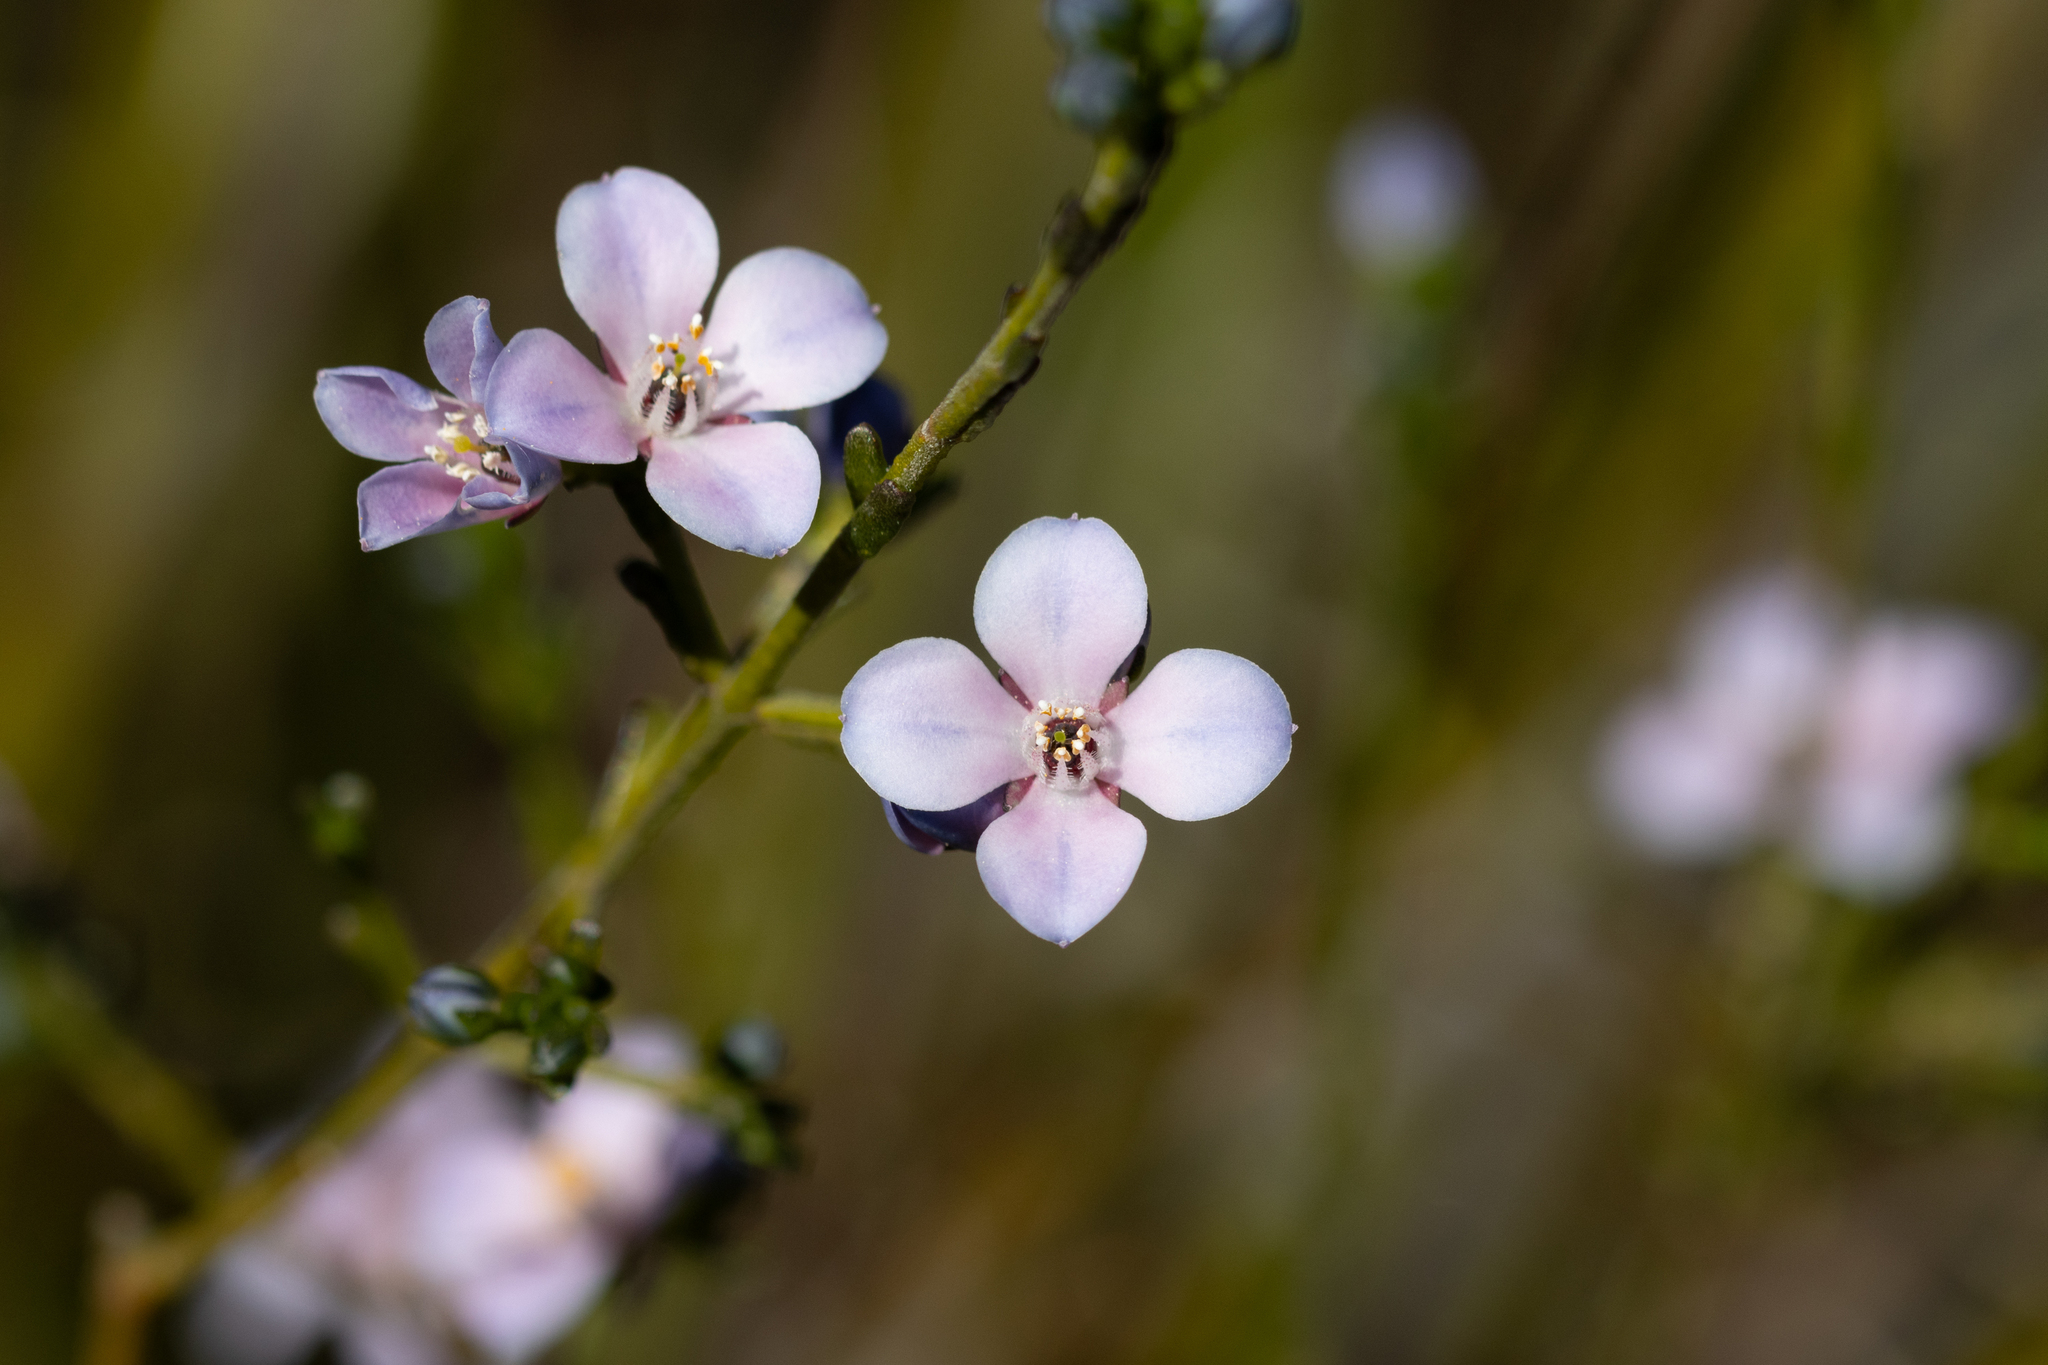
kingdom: Plantae
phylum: Tracheophyta
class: Magnoliopsida
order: Sapindales
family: Rutaceae
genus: Cyanothamnus
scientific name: Cyanothamnus coerulescens
